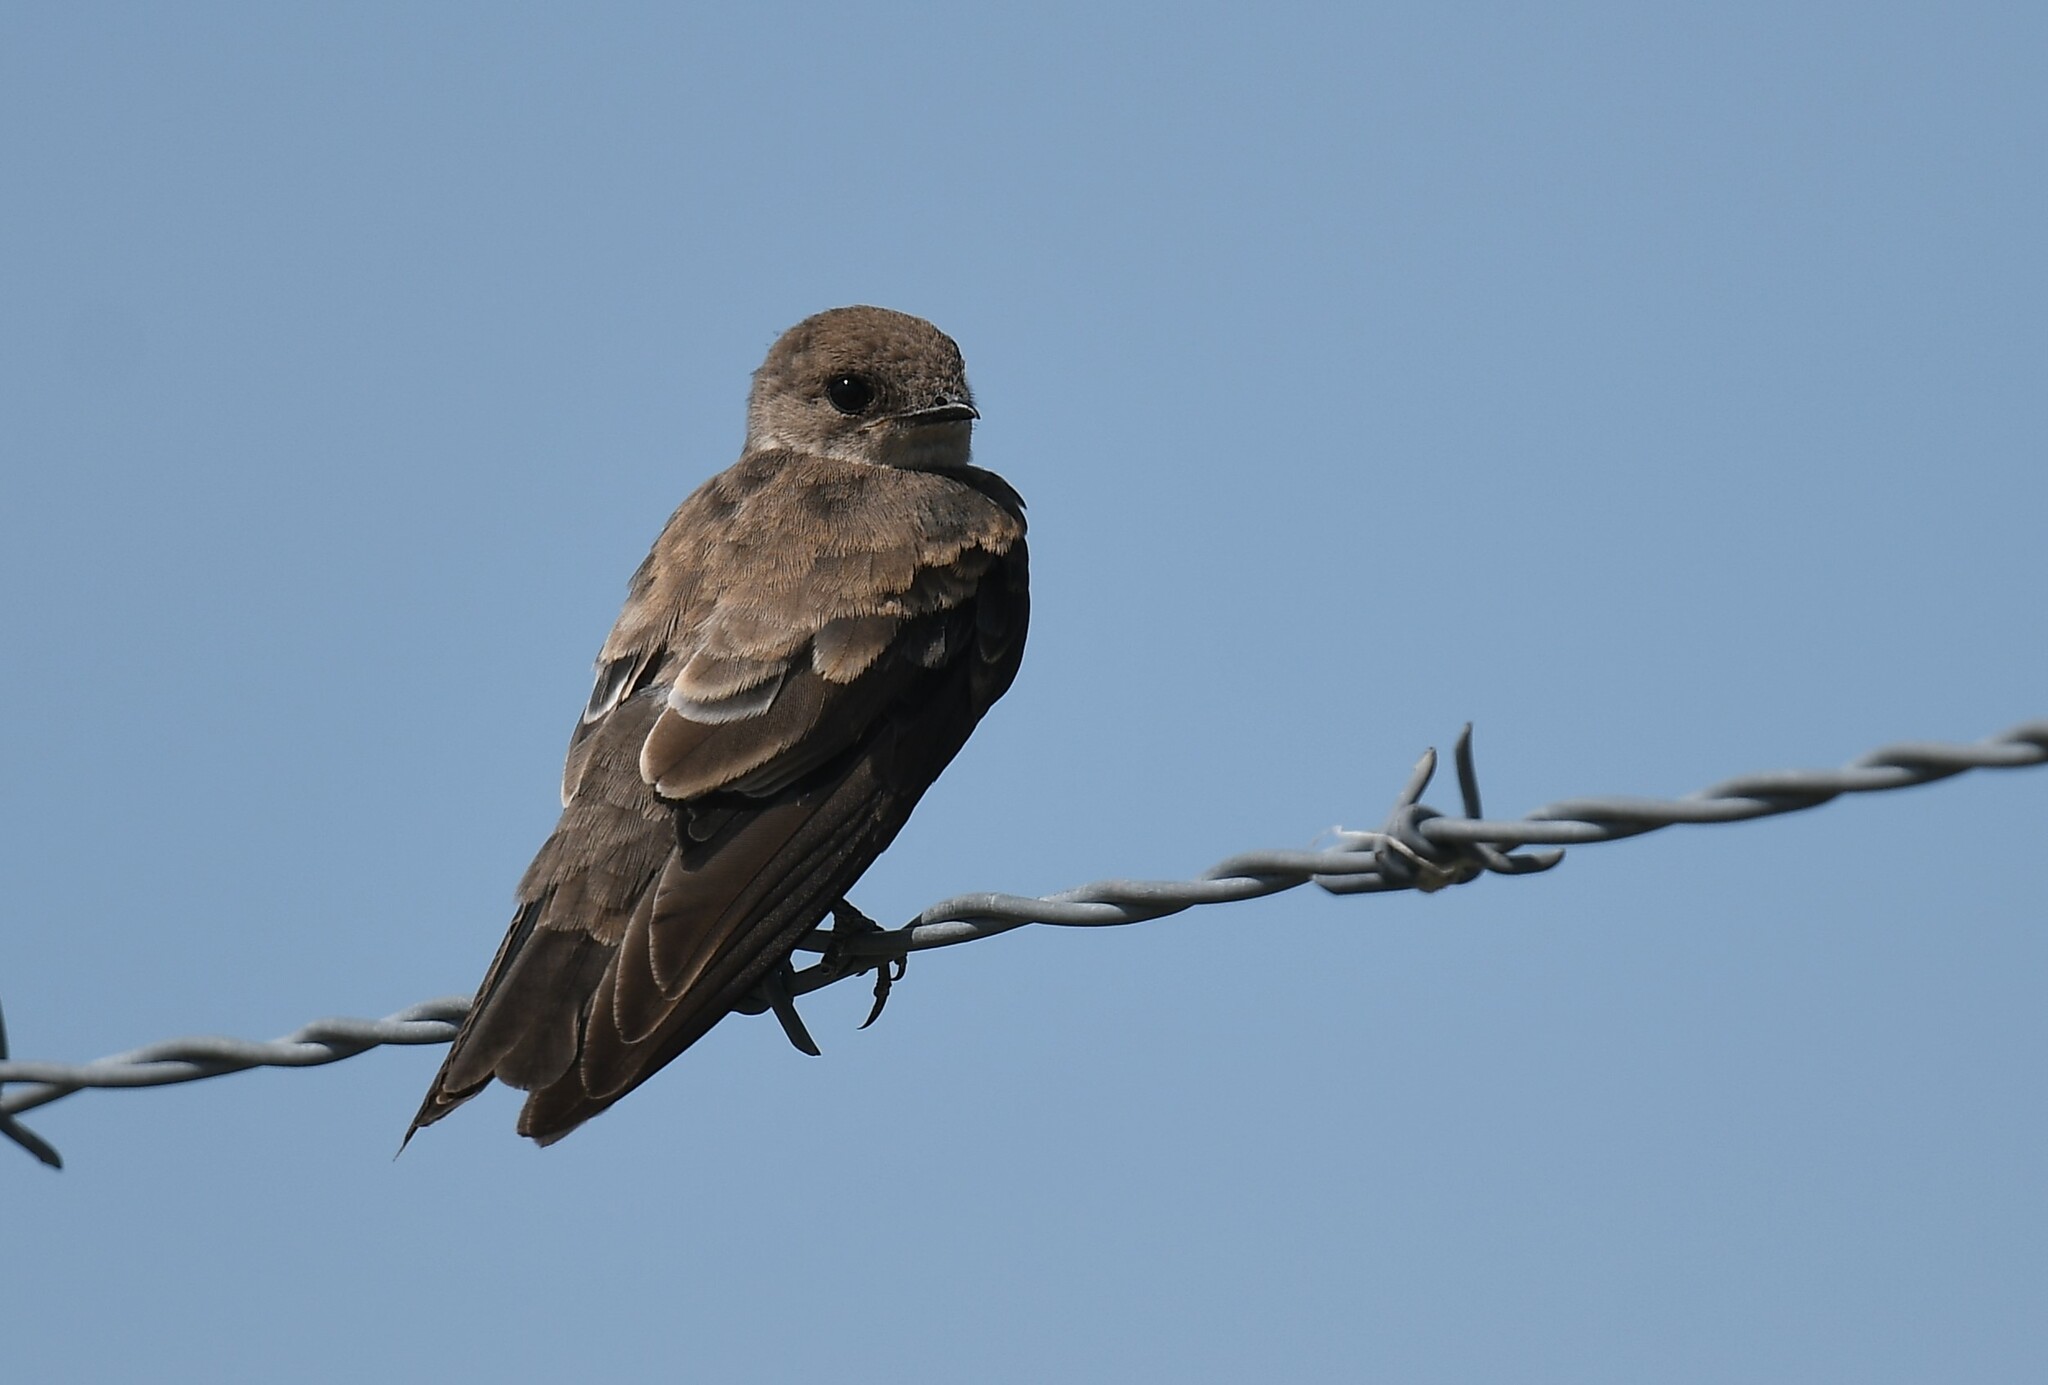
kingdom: Animalia
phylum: Chordata
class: Aves
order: Passeriformes
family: Hirundinidae
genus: Stelgidopteryx
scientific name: Stelgidopteryx serripennis
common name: Northern rough-winged swallow
